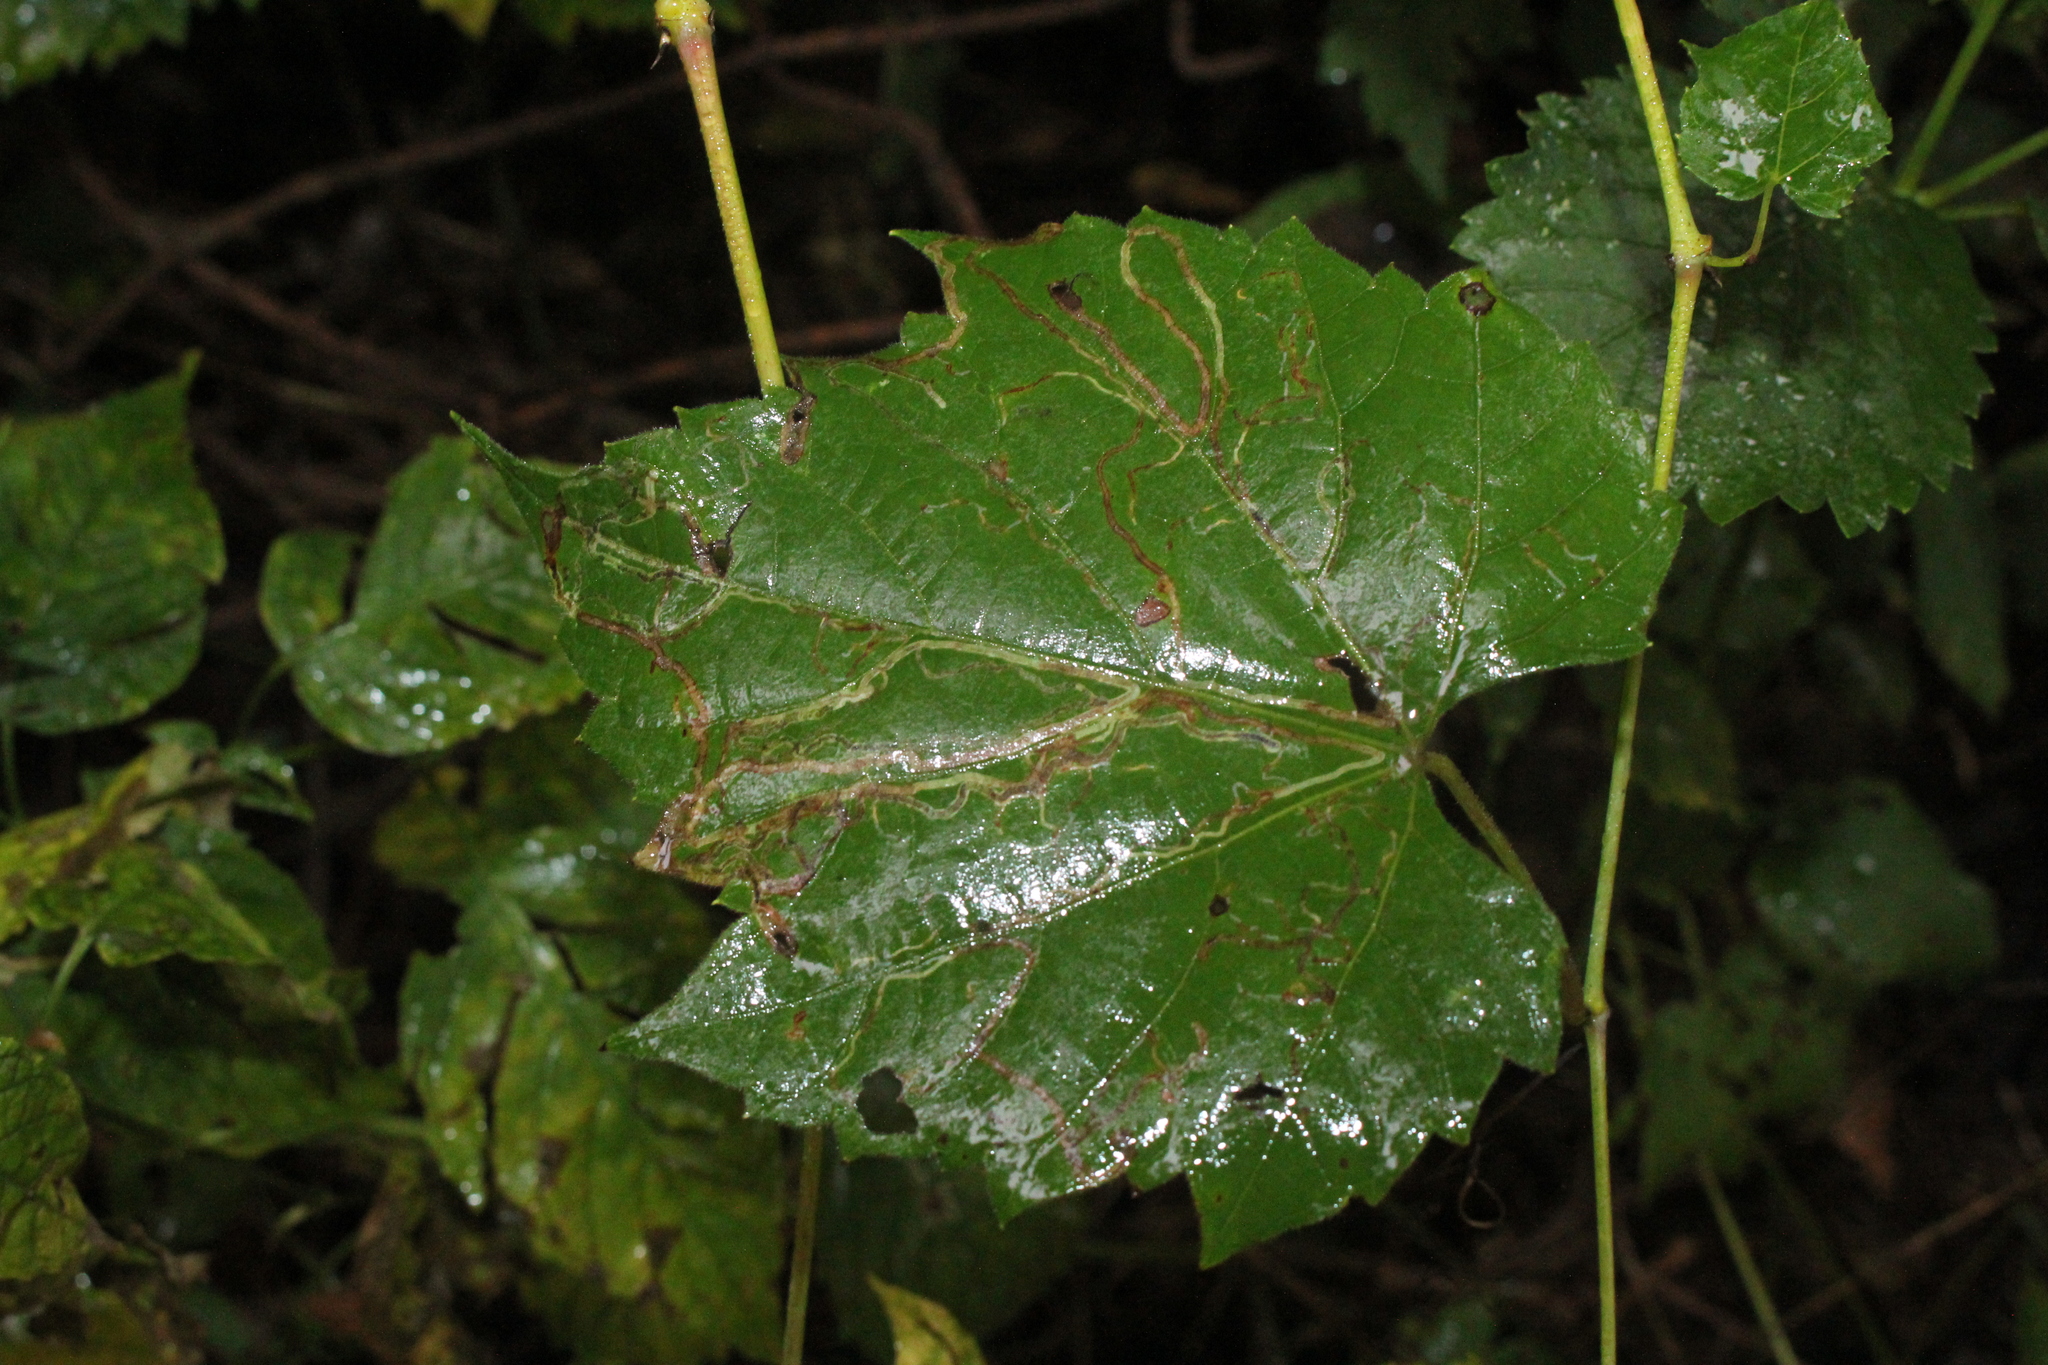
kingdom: Animalia
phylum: Arthropoda
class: Insecta
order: Lepidoptera
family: Gracillariidae
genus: Phyllocnistis
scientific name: Phyllocnistis vitifoliella
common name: Grape leaf-miner moth
